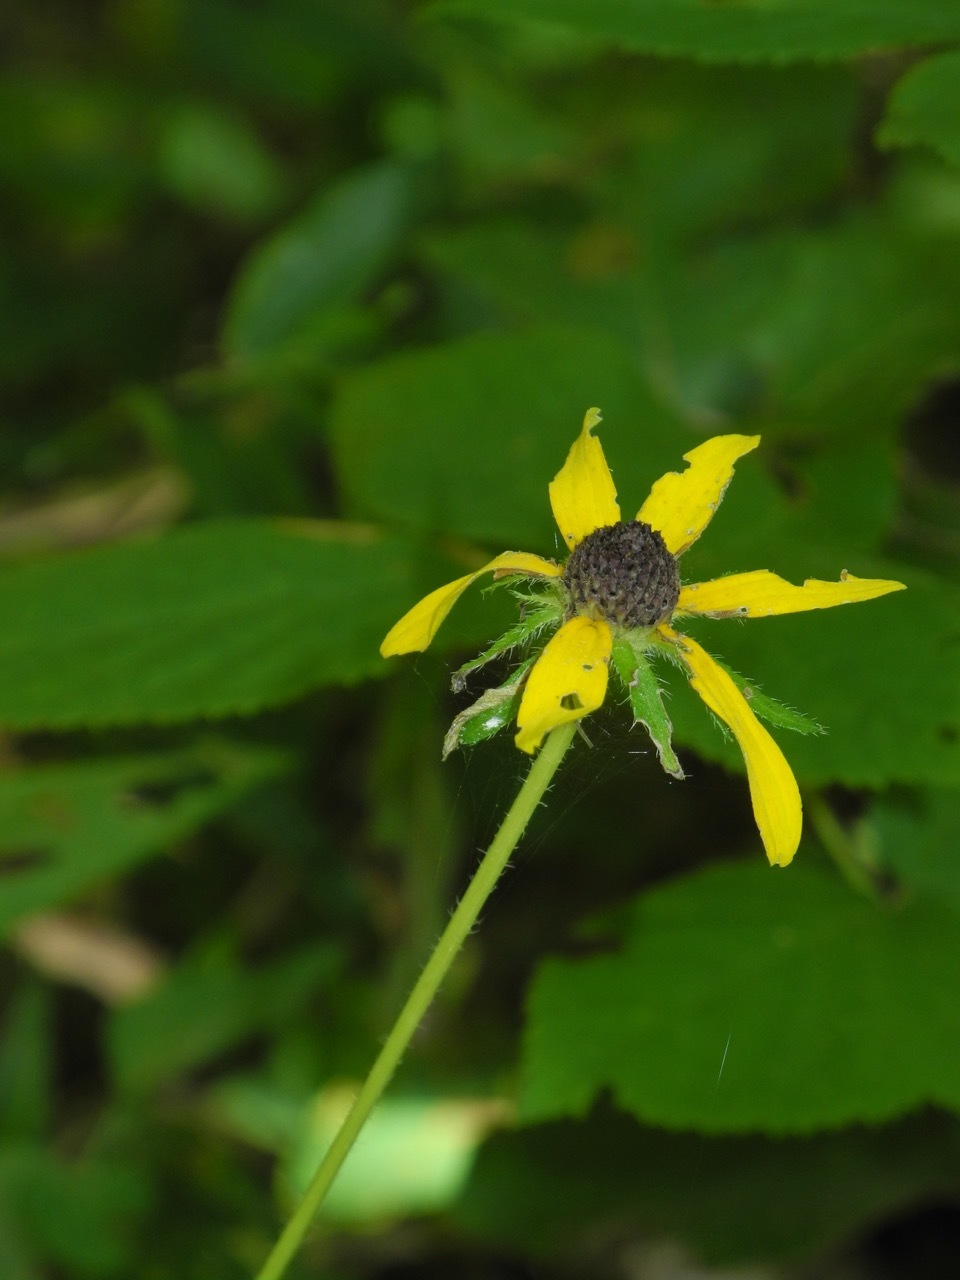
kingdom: Plantae
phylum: Tracheophyta
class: Magnoliopsida
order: Asterales
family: Asteraceae
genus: Rudbeckia
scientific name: Rudbeckia hirta
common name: Black-eyed-susan
